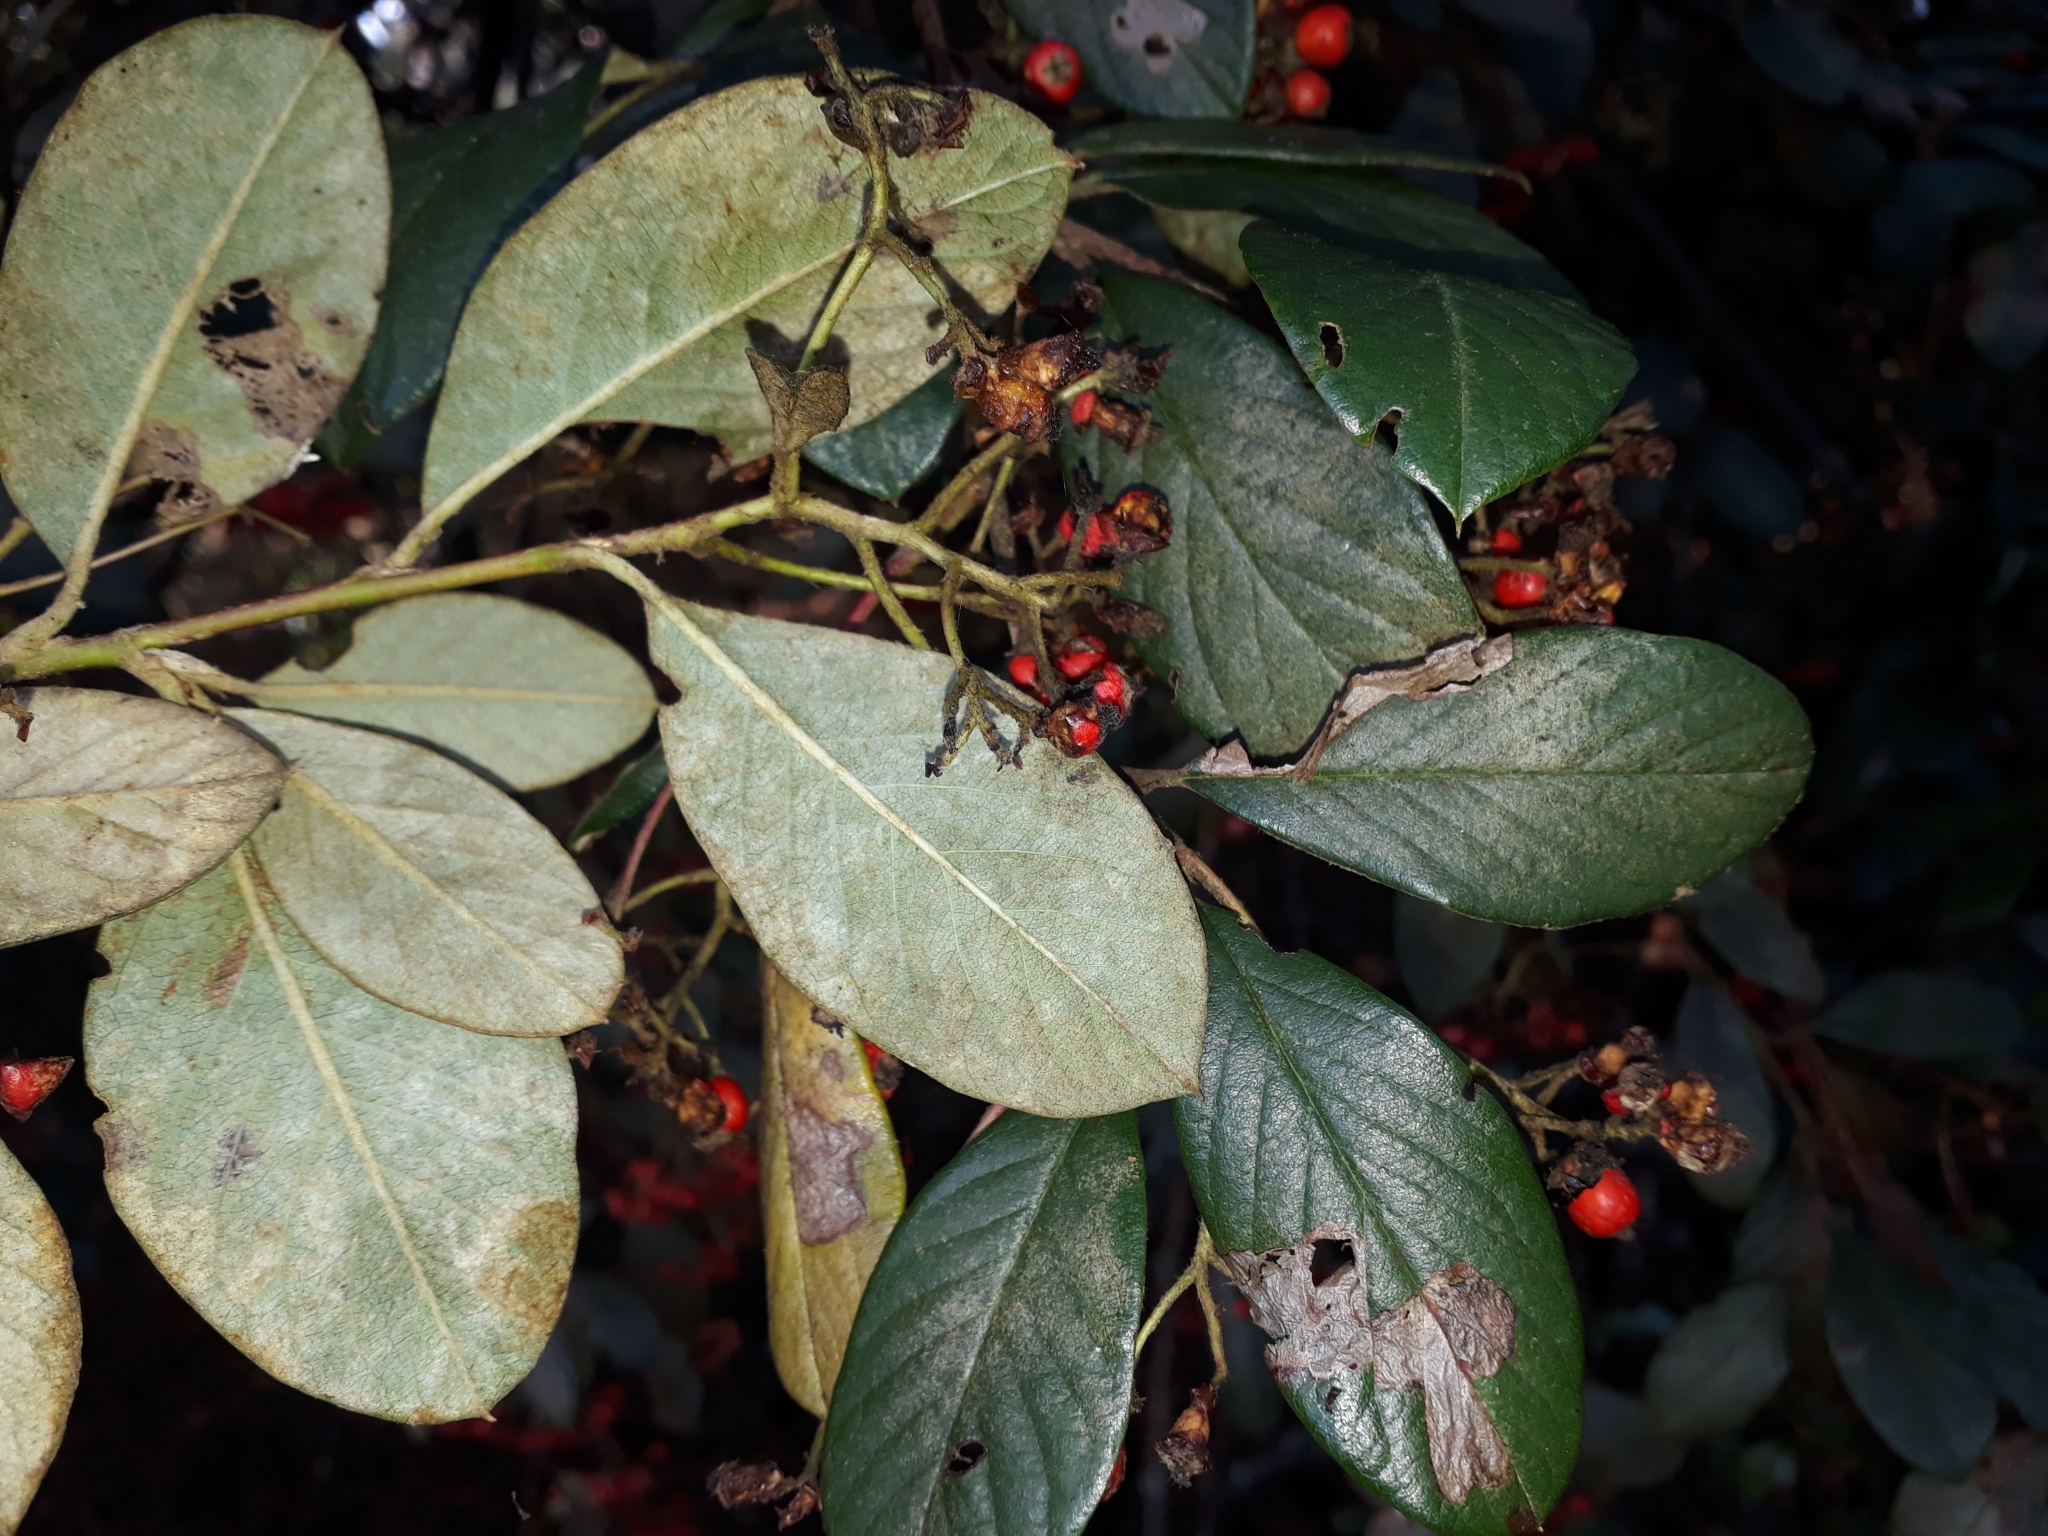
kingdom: Plantae
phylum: Tracheophyta
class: Magnoliopsida
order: Rosales
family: Rosaceae
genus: Cotoneaster
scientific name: Cotoneaster coriaceus
